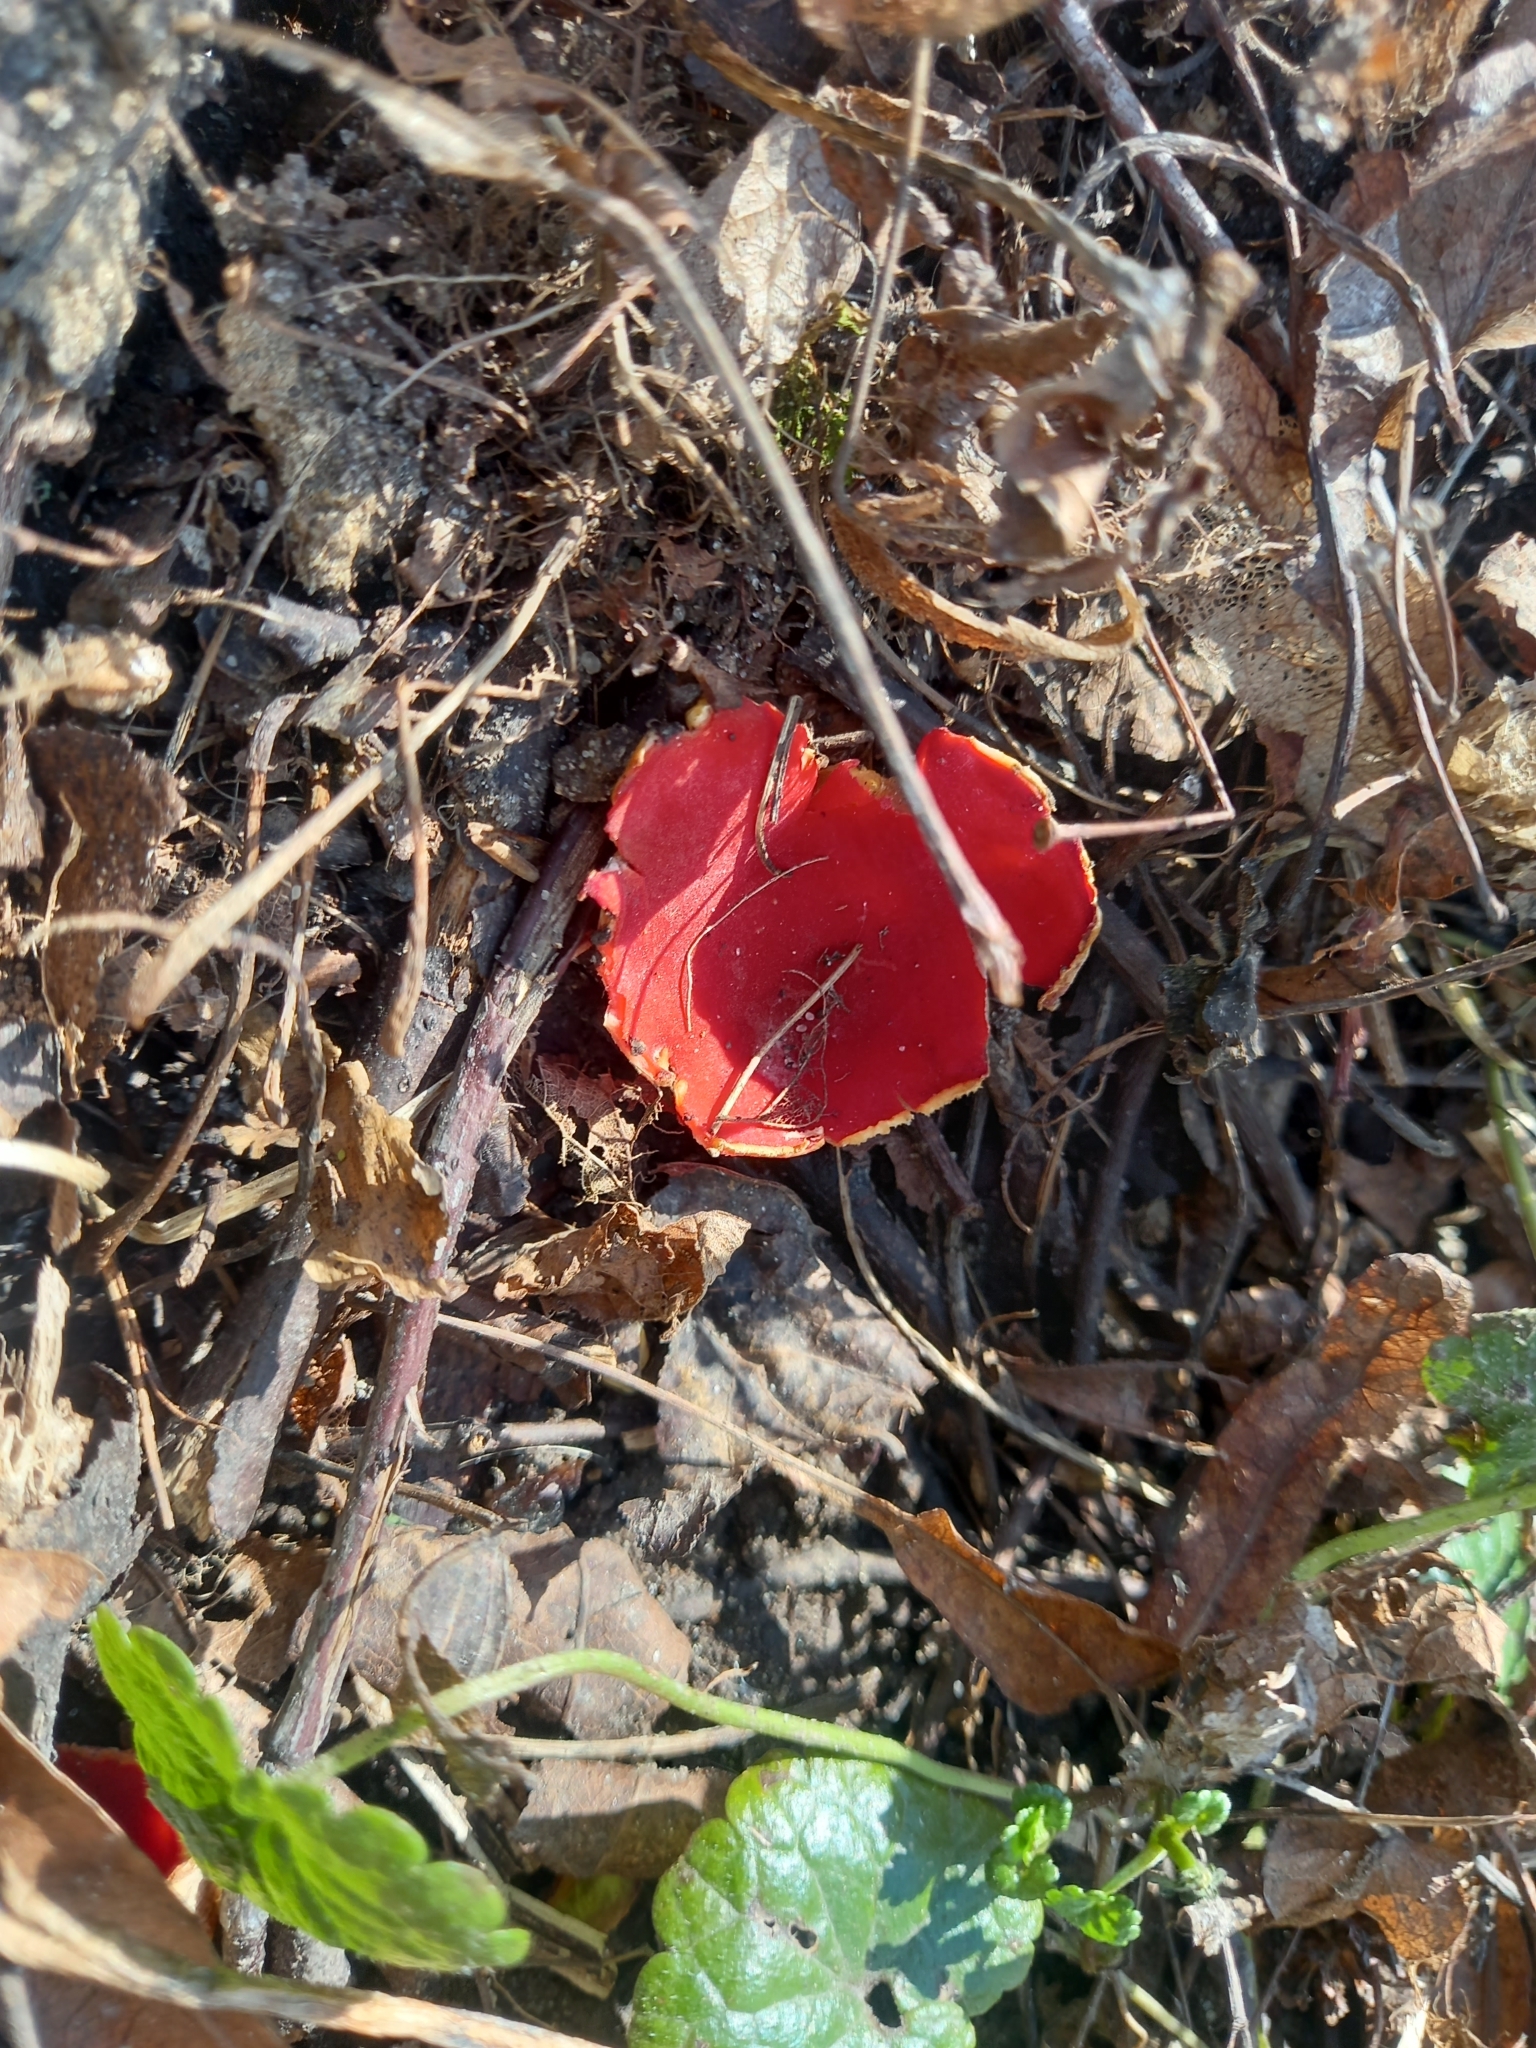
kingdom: Fungi
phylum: Ascomycota
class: Pezizomycetes
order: Pezizales
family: Sarcoscyphaceae
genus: Sarcoscypha
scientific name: Sarcoscypha
